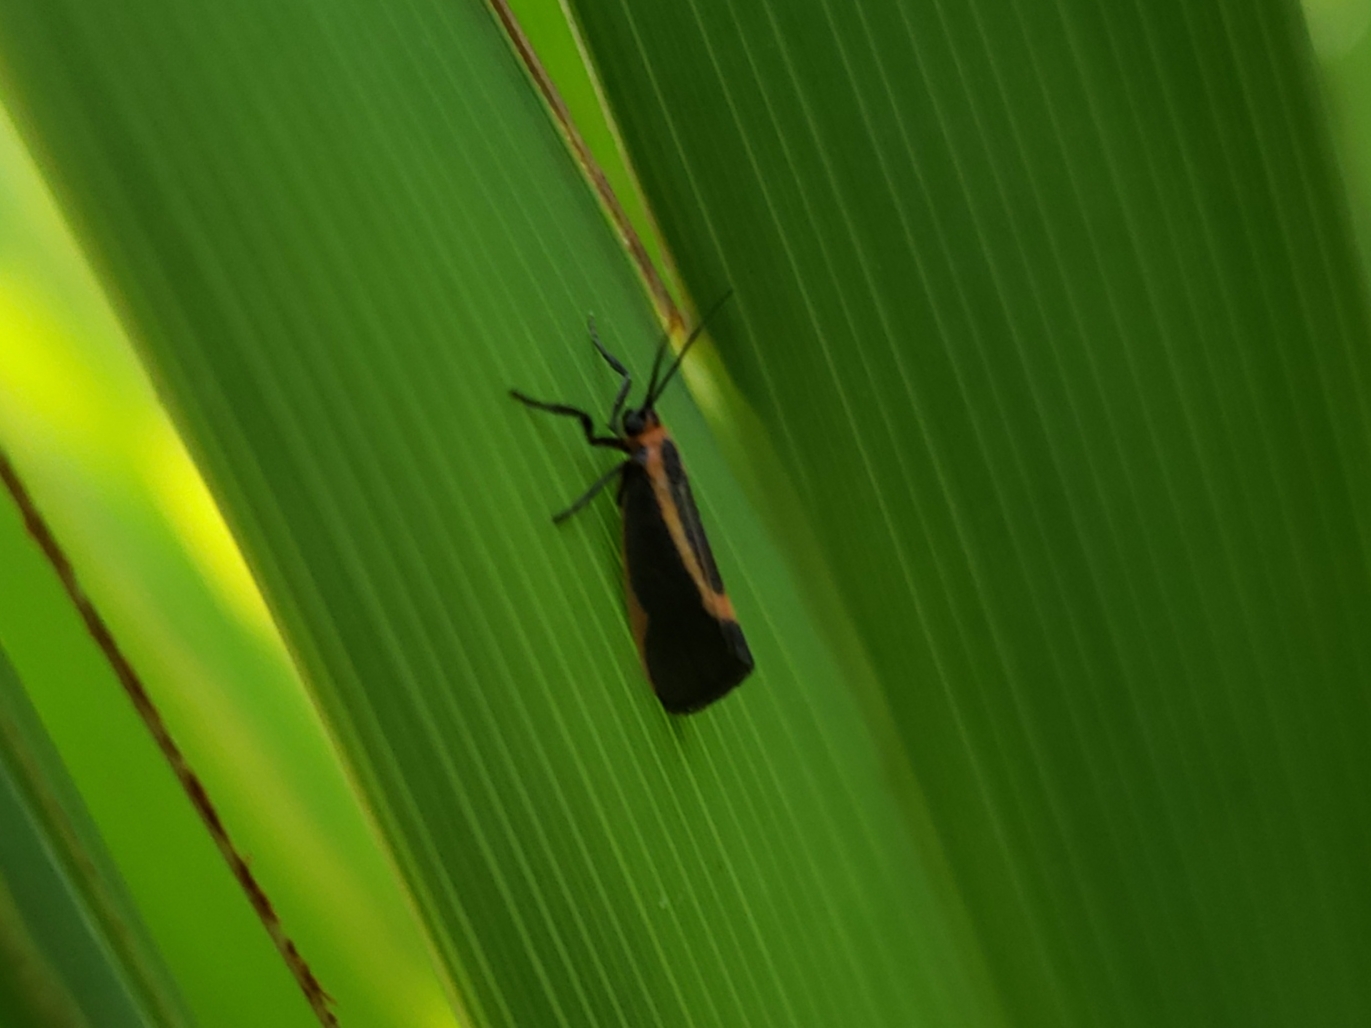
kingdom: Animalia
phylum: Arthropoda
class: Insecta
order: Lepidoptera
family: Erebidae
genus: Cisthene
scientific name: Cisthene subjecta
